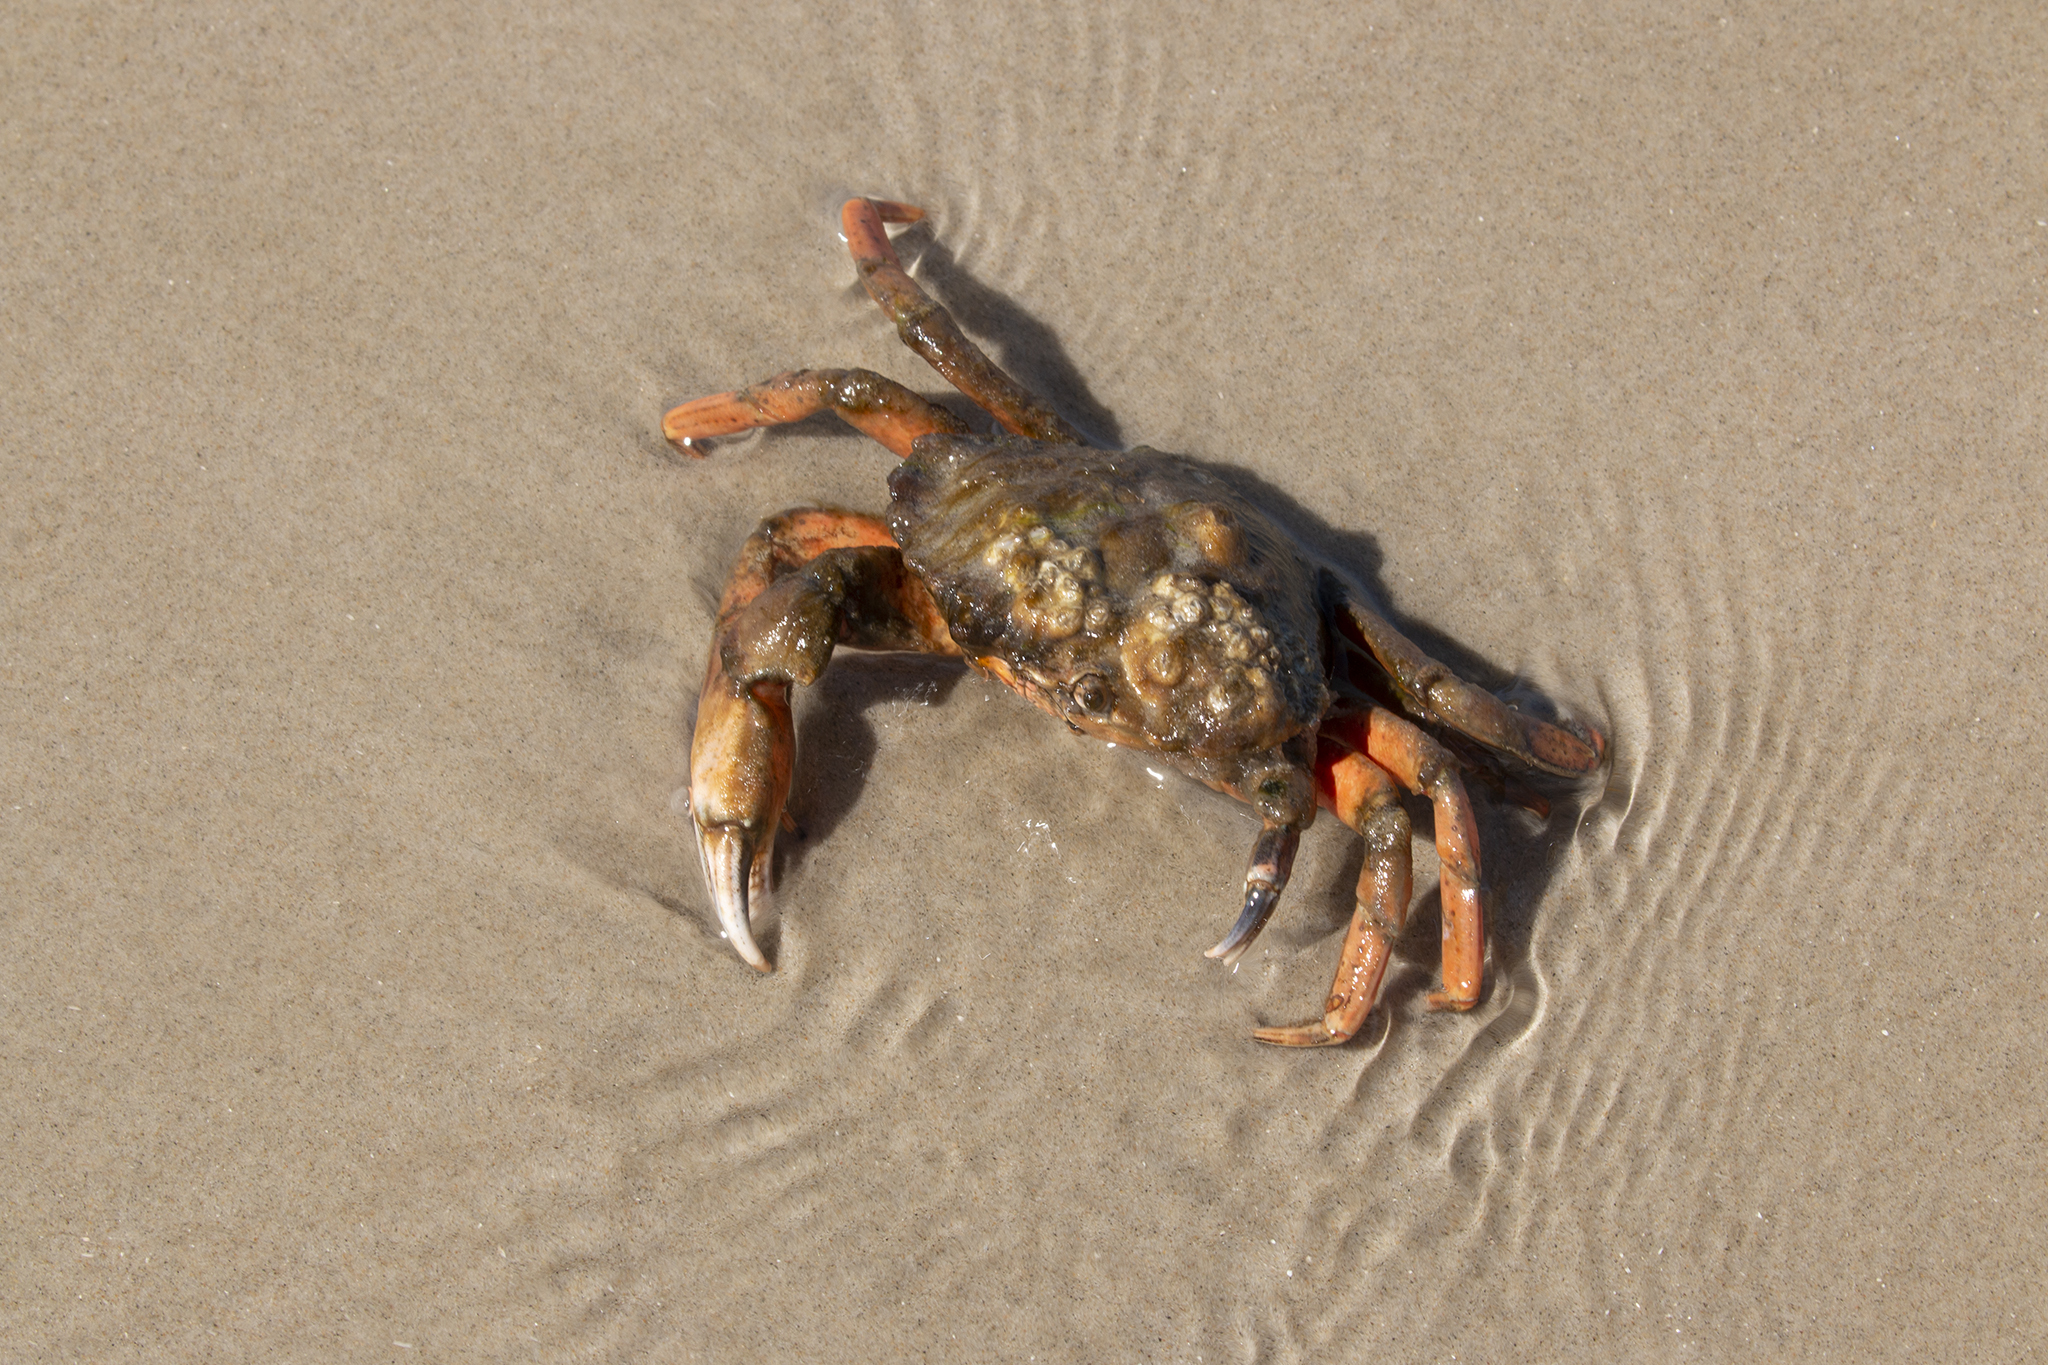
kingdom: Animalia
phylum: Arthropoda
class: Malacostraca
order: Decapoda
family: Carcinidae
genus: Carcinus
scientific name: Carcinus maenas
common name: European green crab
